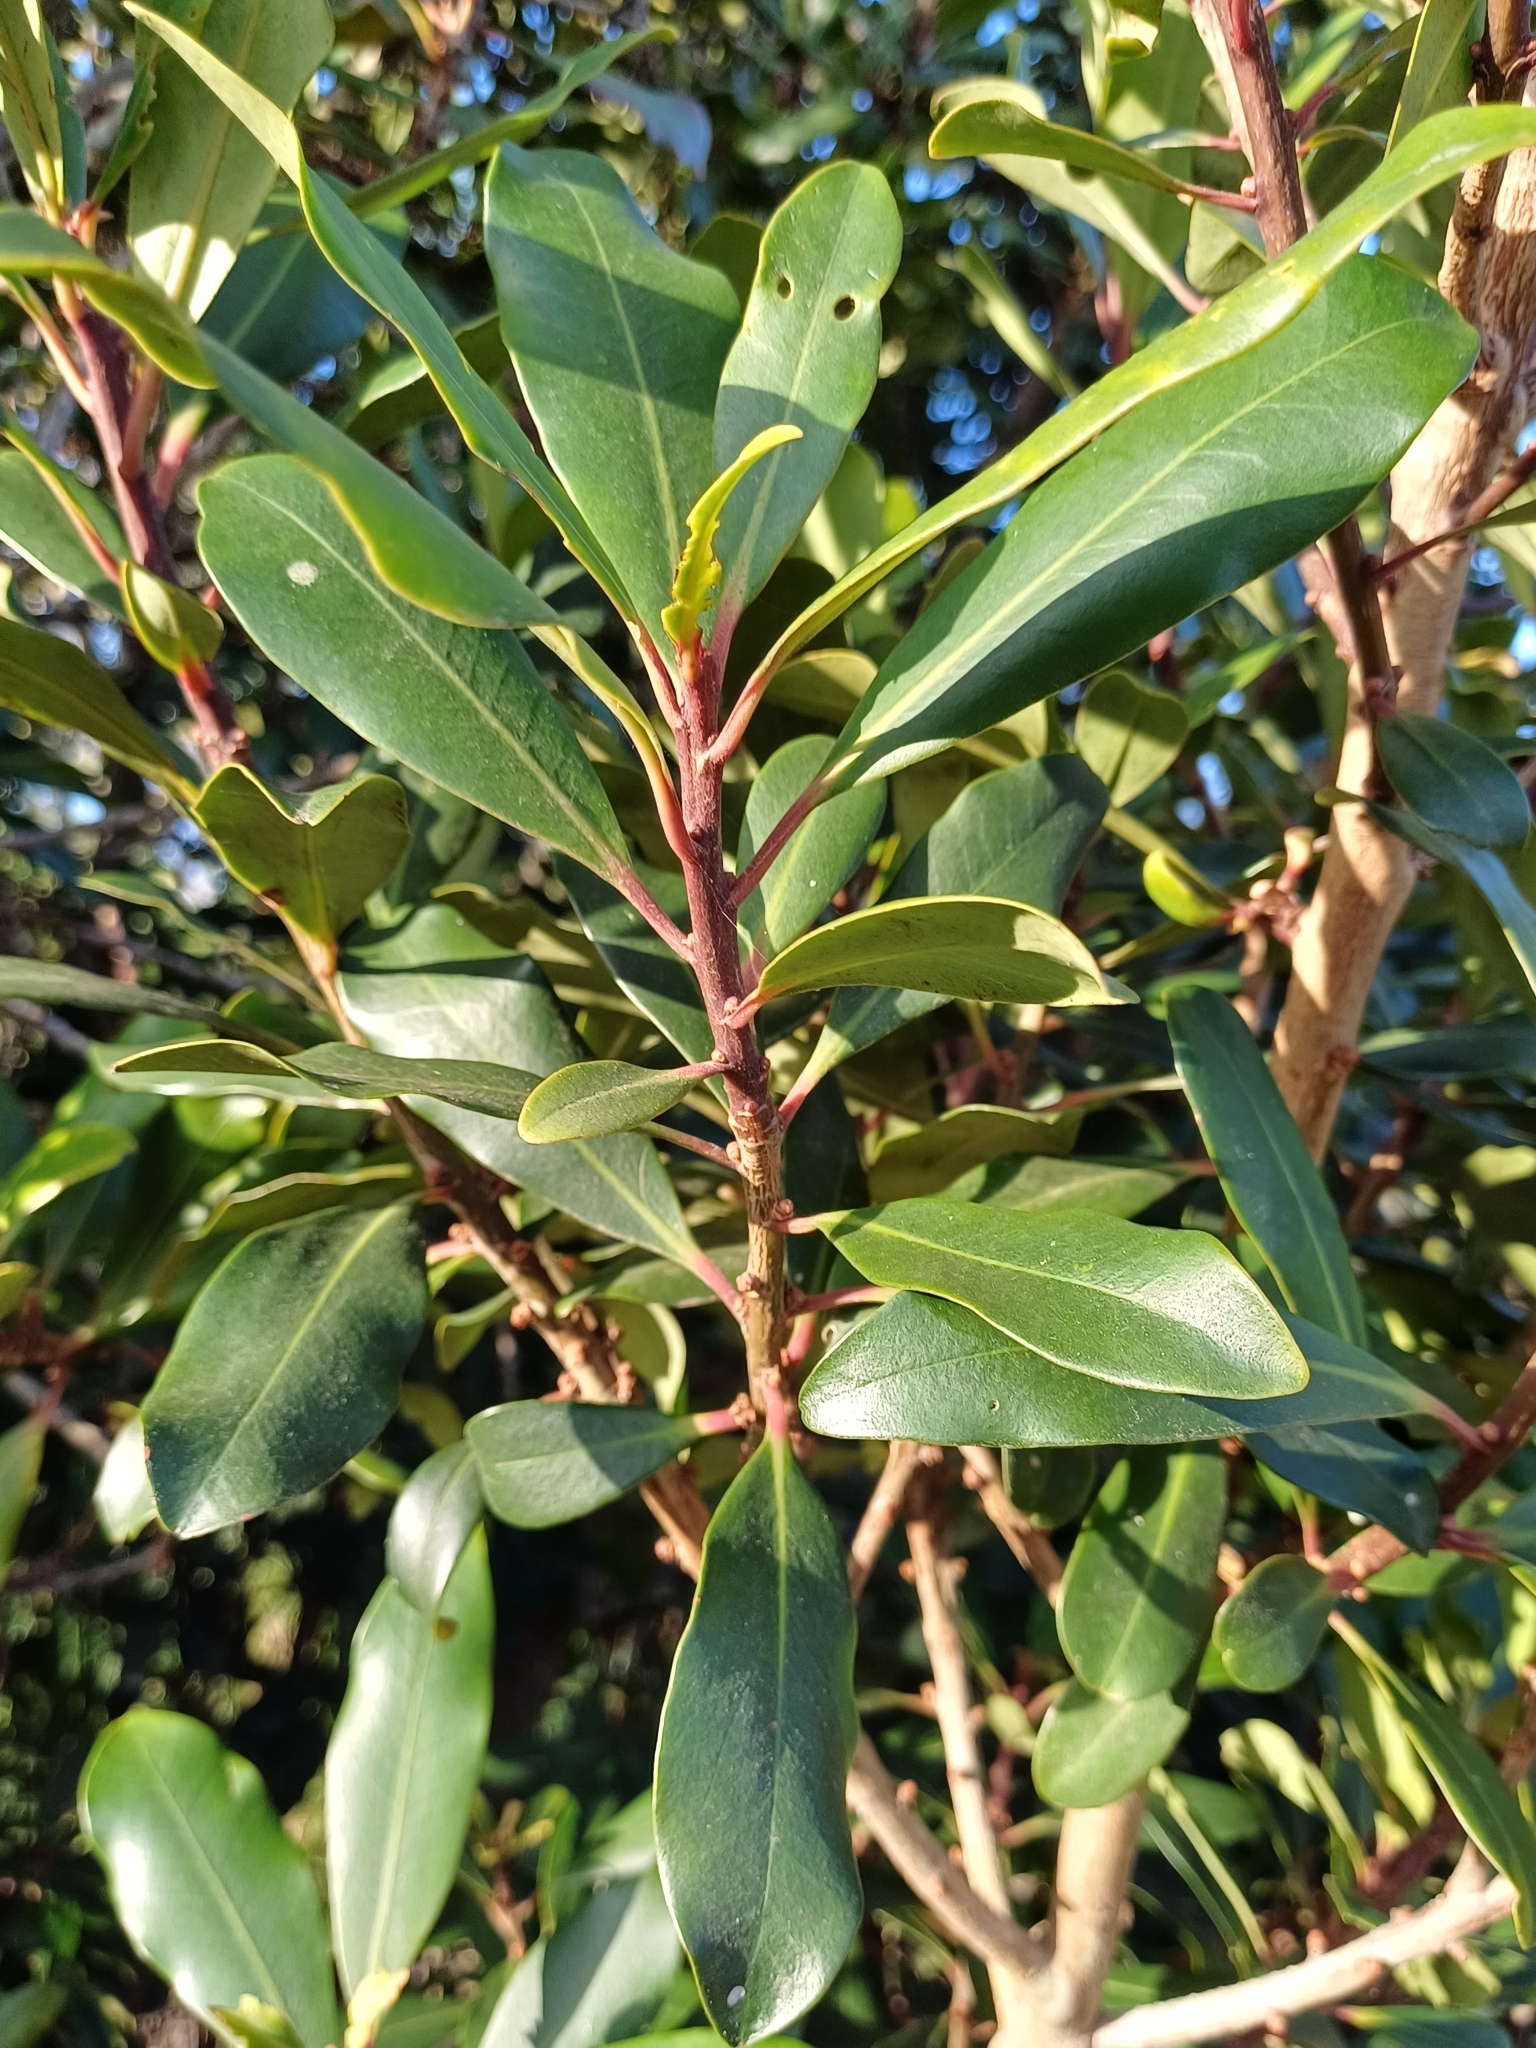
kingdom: Plantae
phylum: Tracheophyta
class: Magnoliopsida
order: Ericales
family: Primulaceae
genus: Myrsine
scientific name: Myrsine melanophloeos
